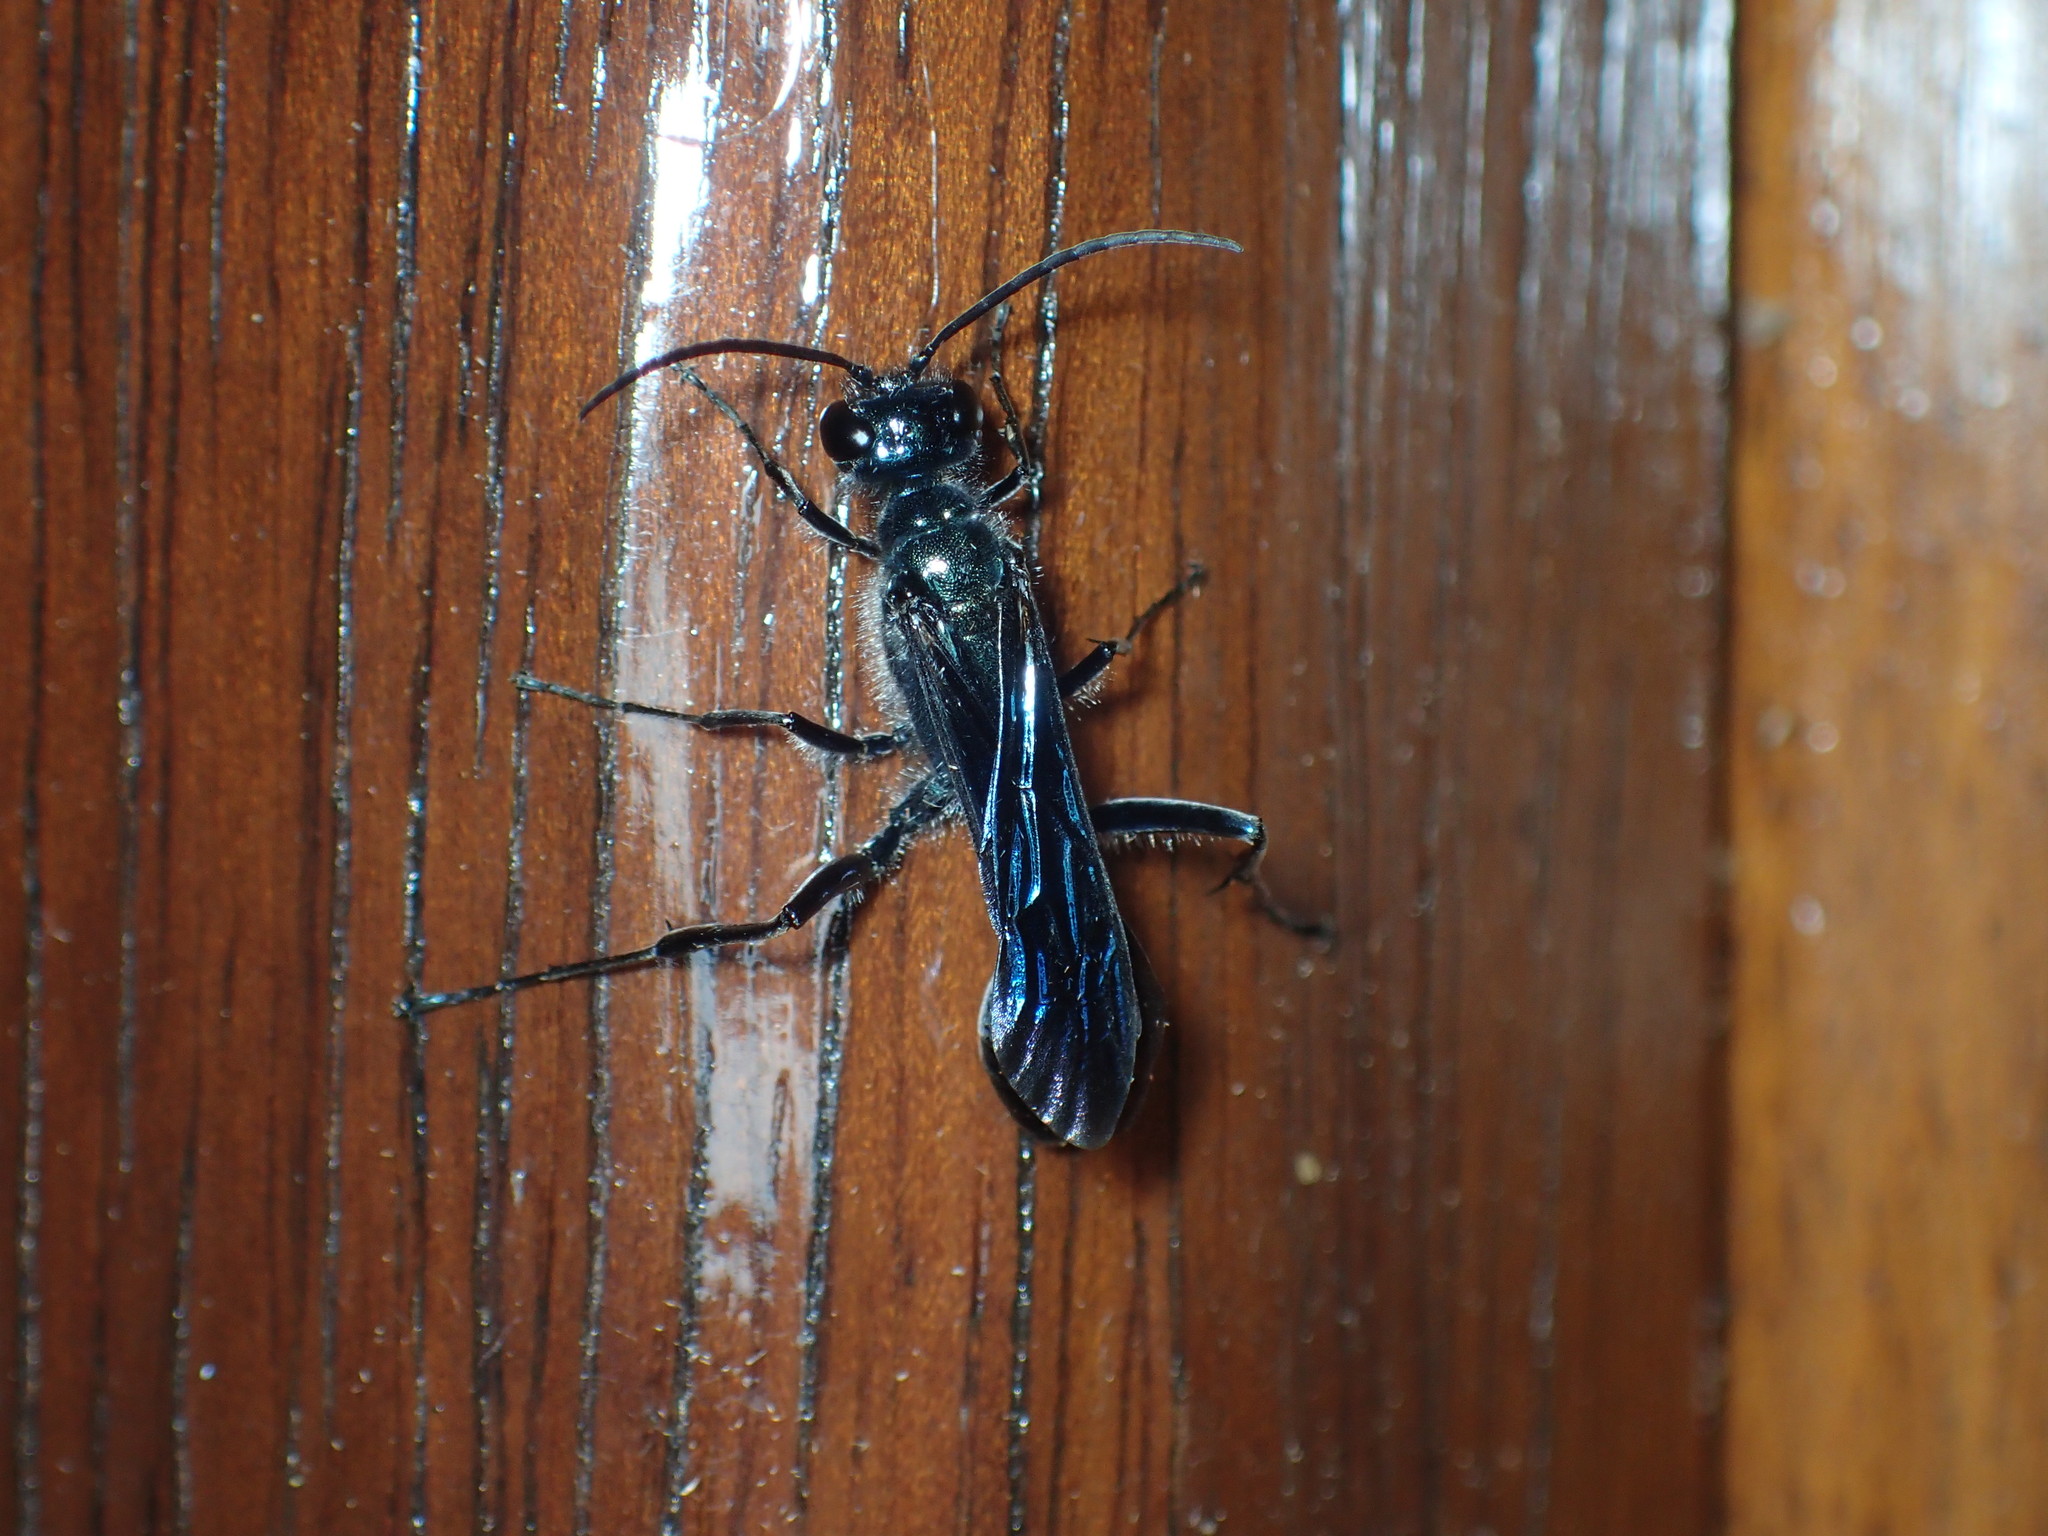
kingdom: Animalia
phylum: Arthropoda
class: Insecta
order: Hymenoptera
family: Sphecidae
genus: Chalybion
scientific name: Chalybion zimmermanni
